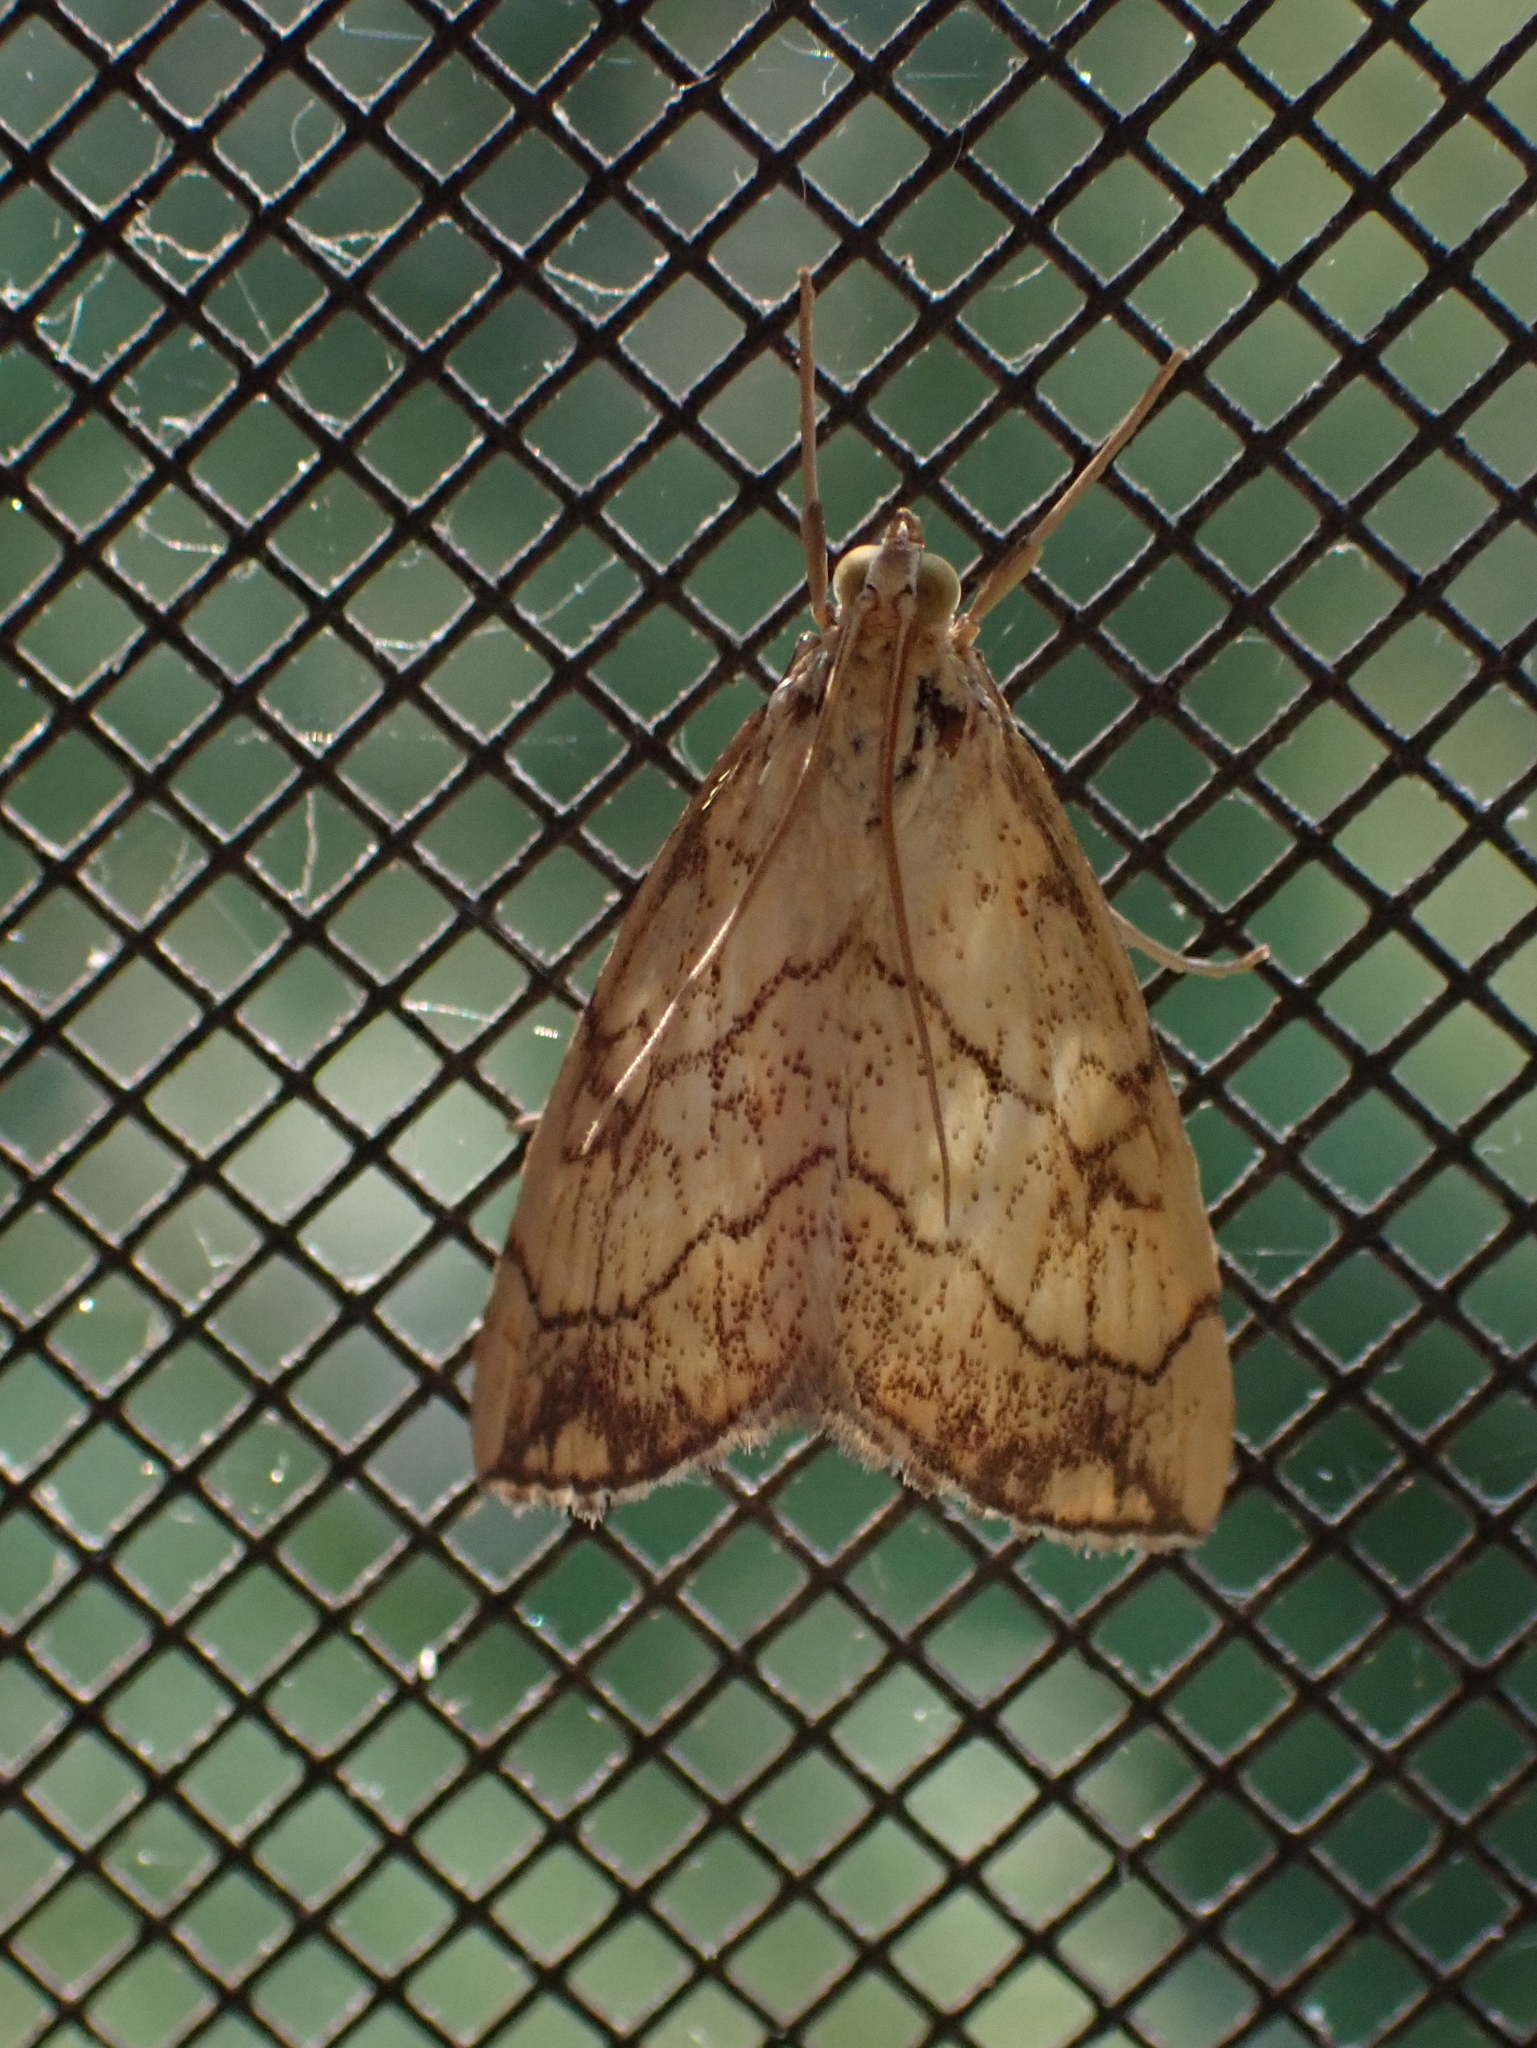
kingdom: Animalia
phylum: Arthropoda
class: Insecta
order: Lepidoptera
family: Crambidae
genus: Evergestis
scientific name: Evergestis pallidata
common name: Chequered pearl
